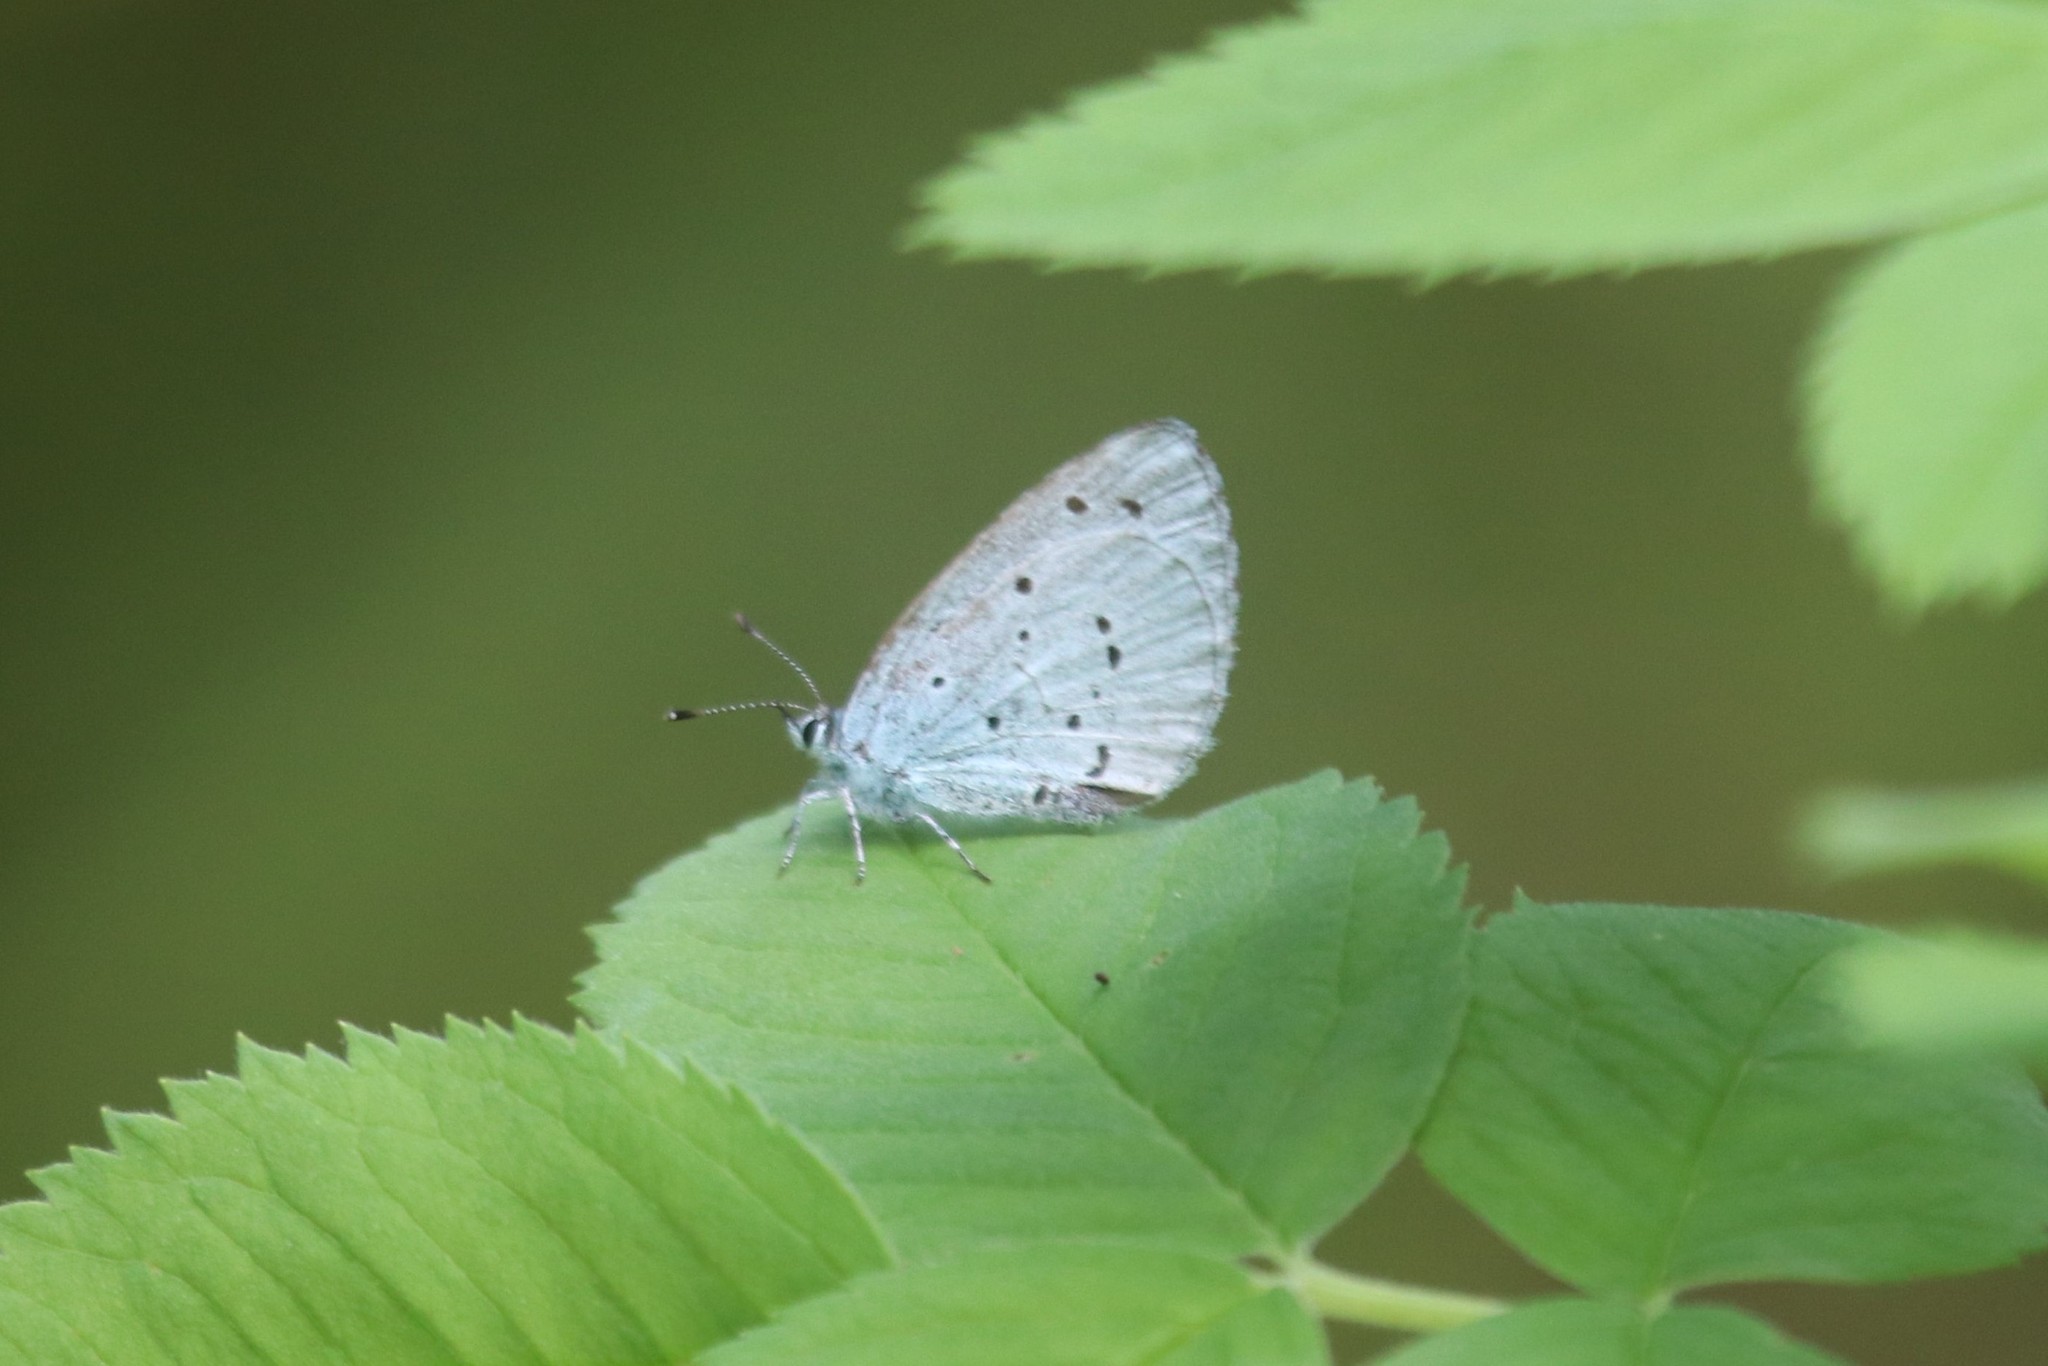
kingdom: Animalia
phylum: Arthropoda
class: Insecta
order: Lepidoptera
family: Lycaenidae
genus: Celastrina
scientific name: Celastrina argiolus
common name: Holly blue
